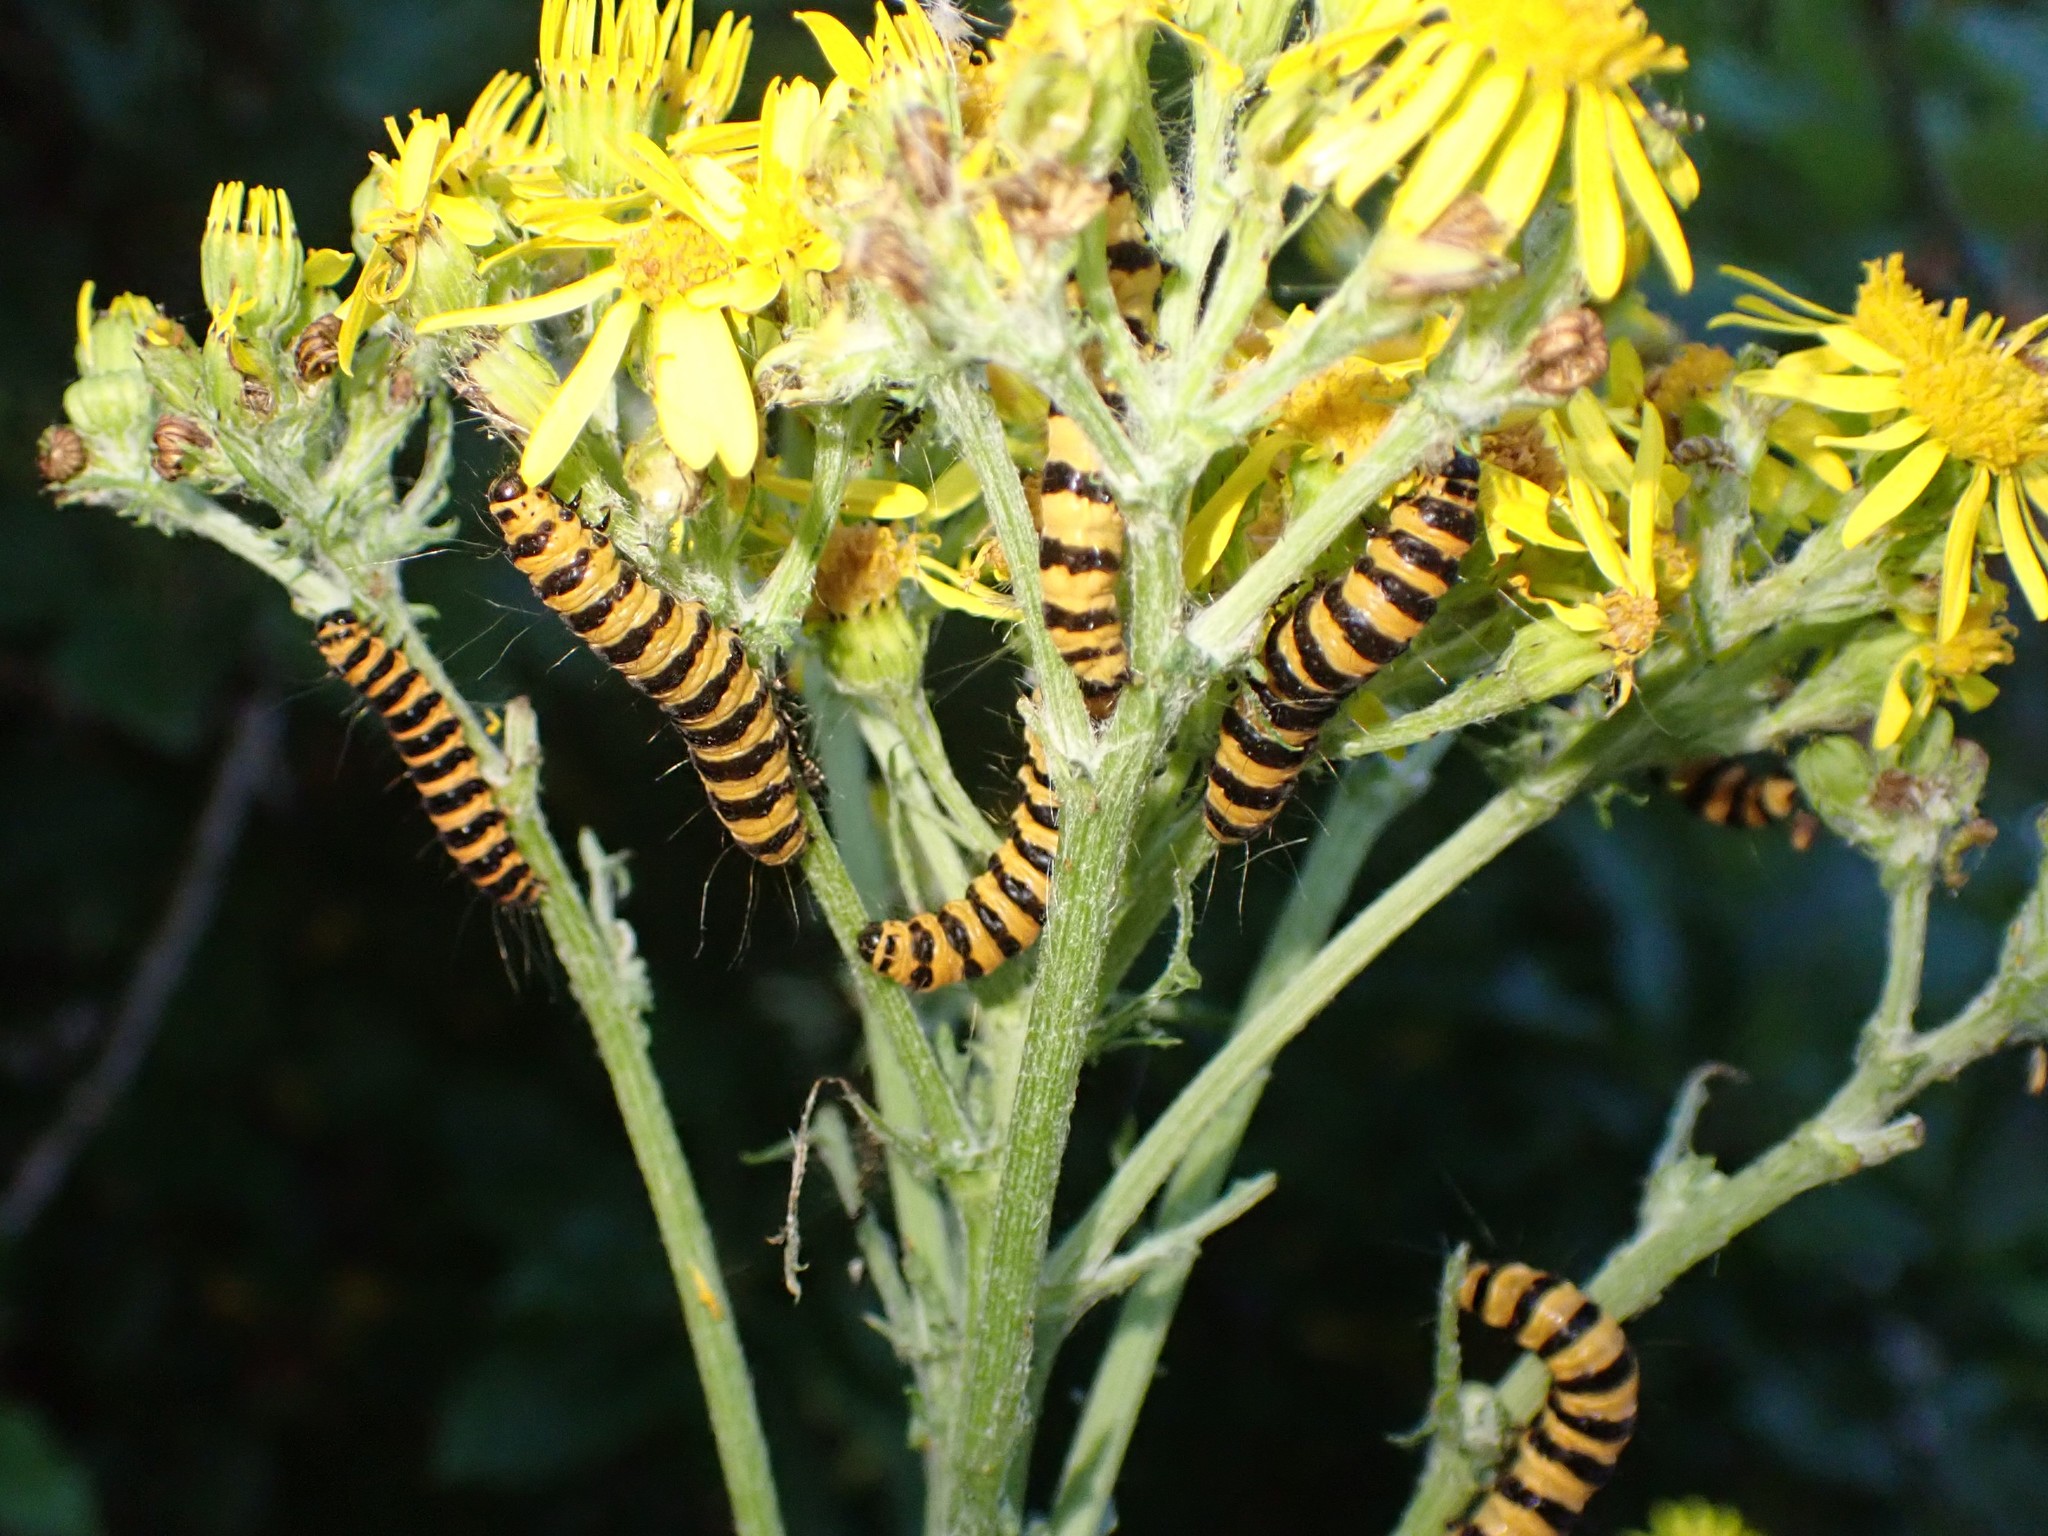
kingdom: Animalia
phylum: Arthropoda
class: Insecta
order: Lepidoptera
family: Erebidae
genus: Tyria
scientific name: Tyria jacobaeae
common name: Cinnabar
